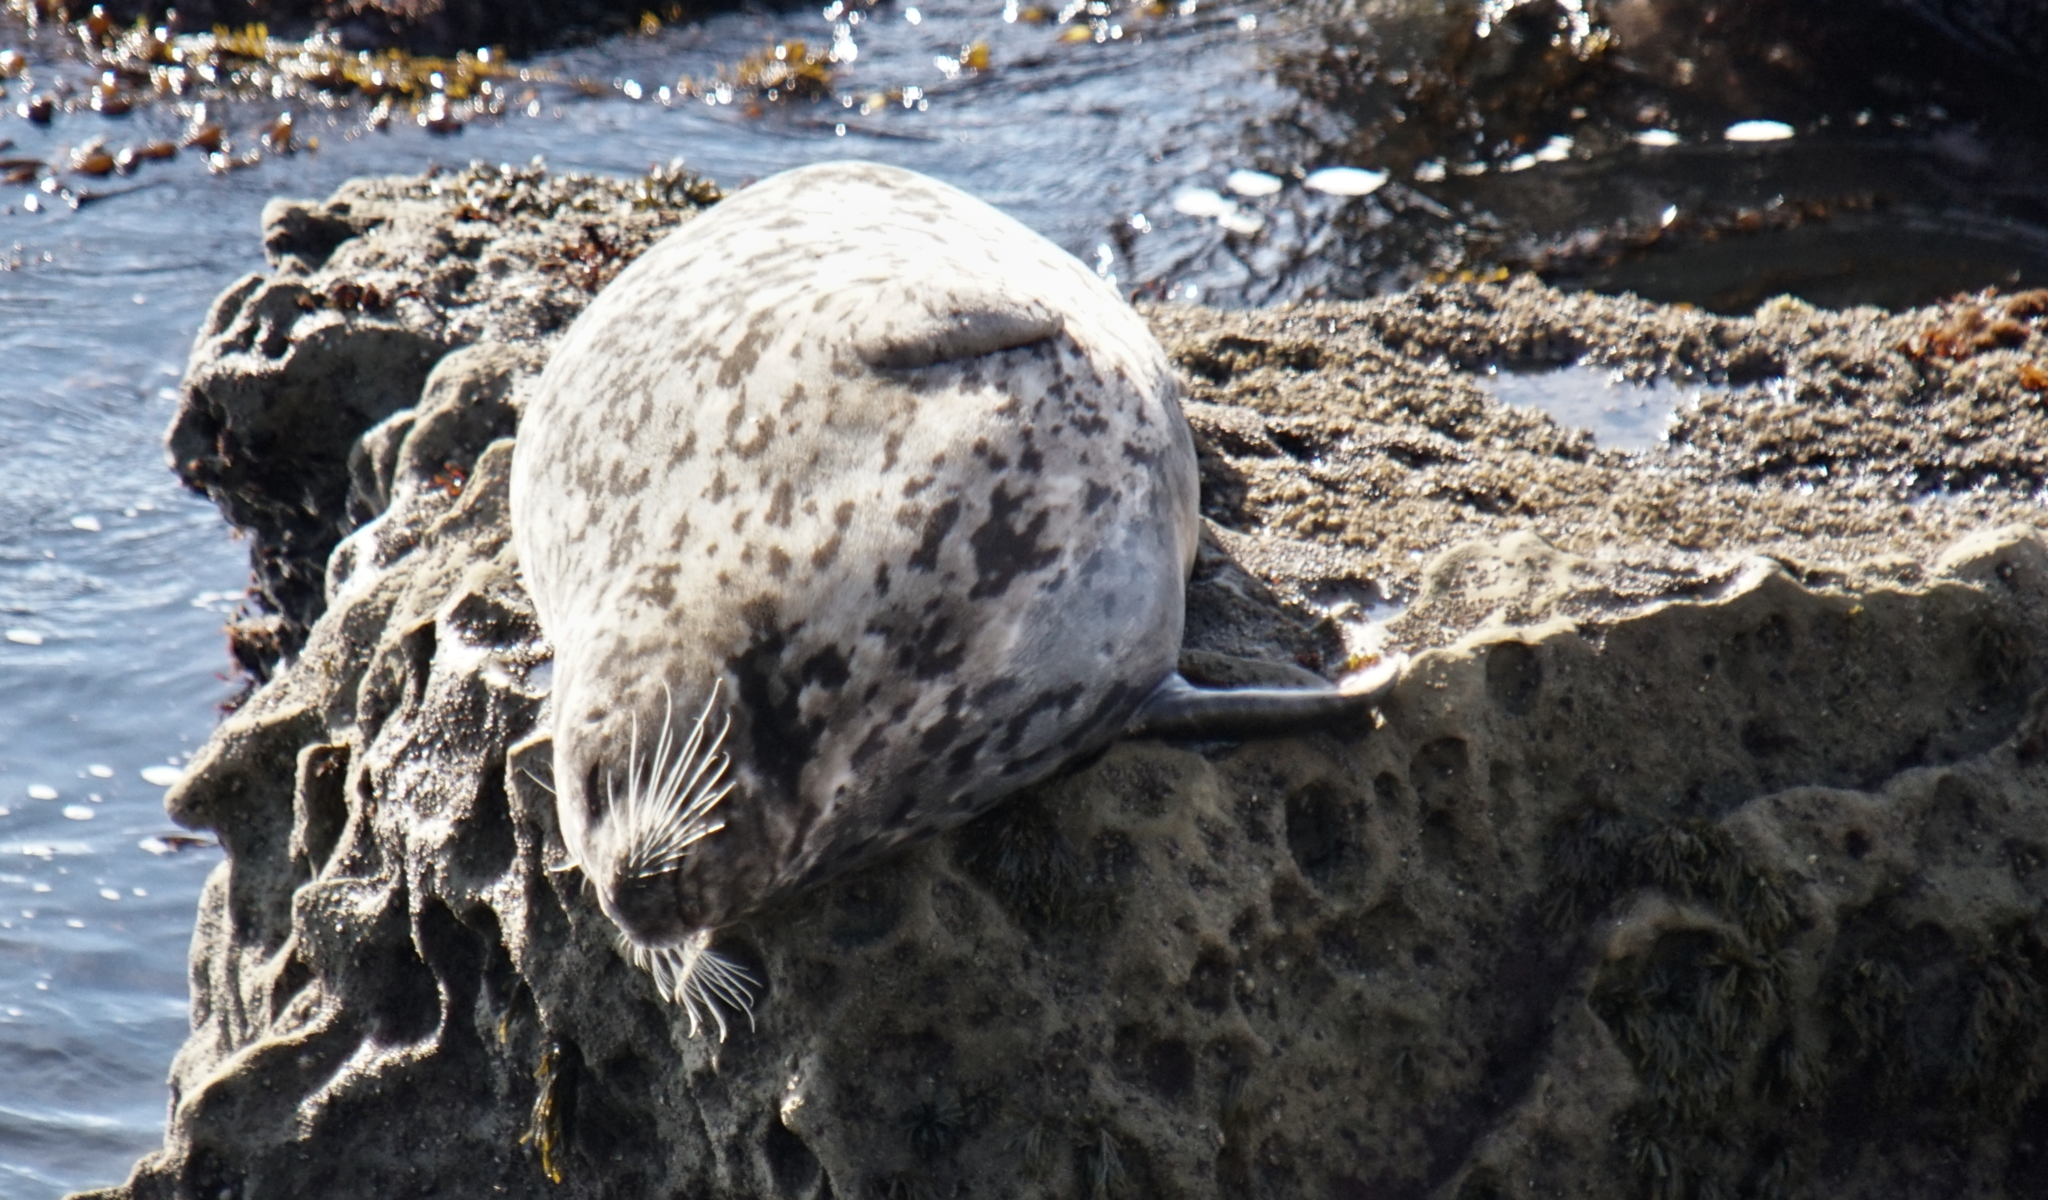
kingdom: Animalia
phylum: Chordata
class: Mammalia
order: Carnivora
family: Phocidae
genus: Phoca
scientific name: Phoca vitulina
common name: Harbor seal
